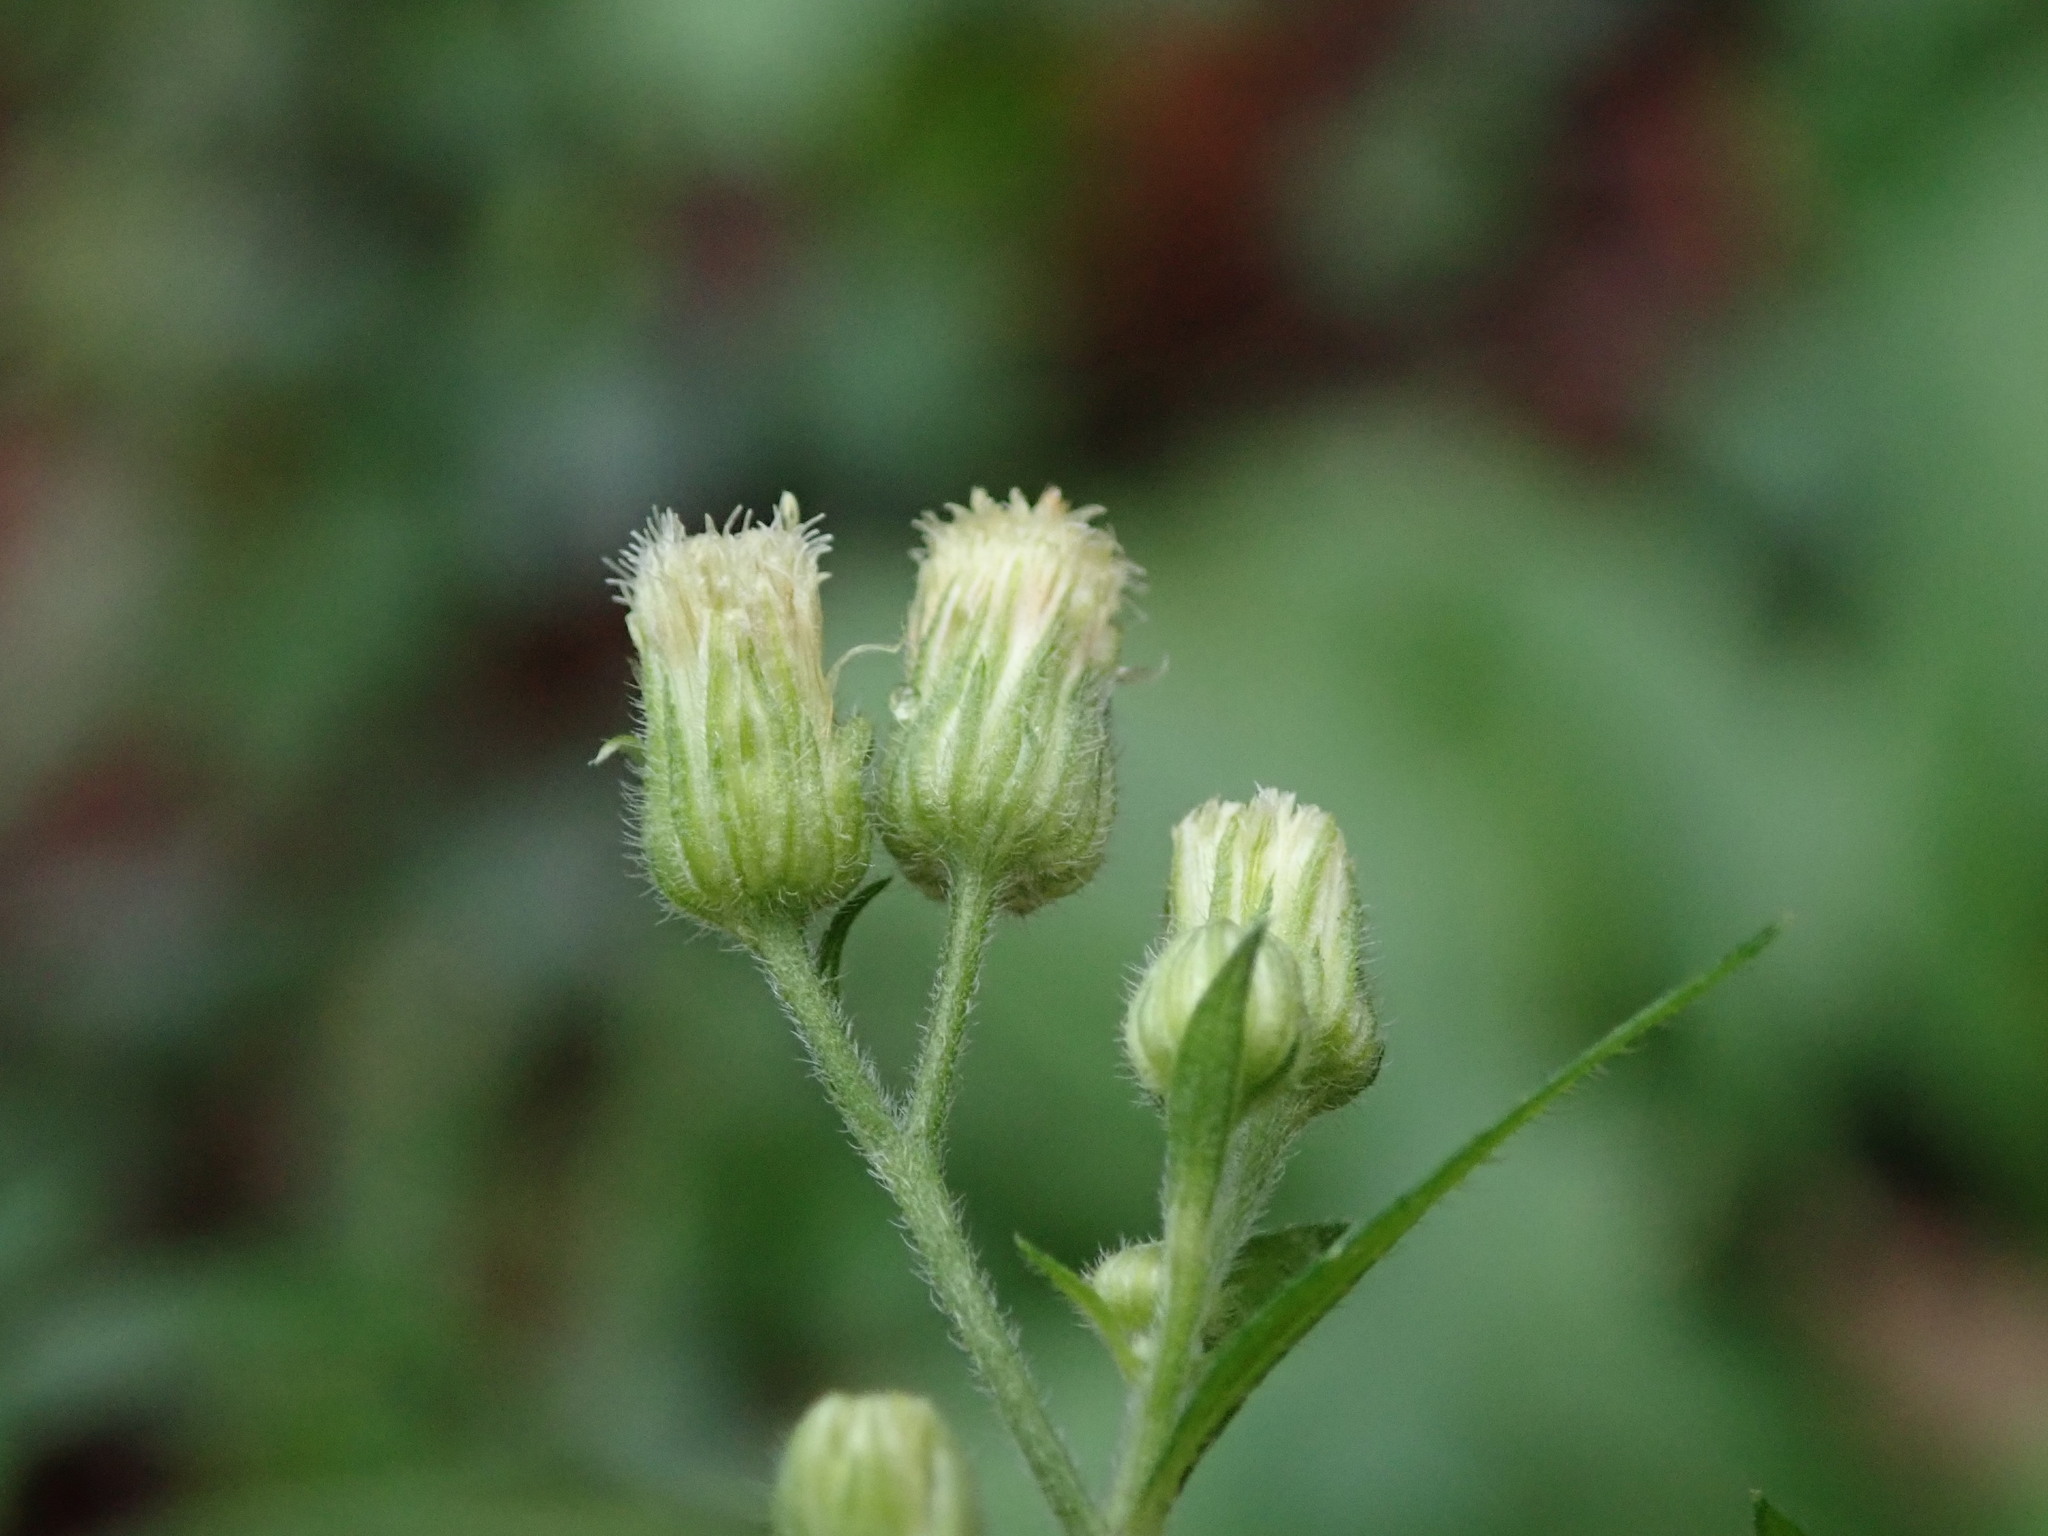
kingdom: Plantae
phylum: Tracheophyta
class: Magnoliopsida
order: Asterales
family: Asteraceae
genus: Erigeron
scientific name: Erigeron sumatrensis
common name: Daisy
